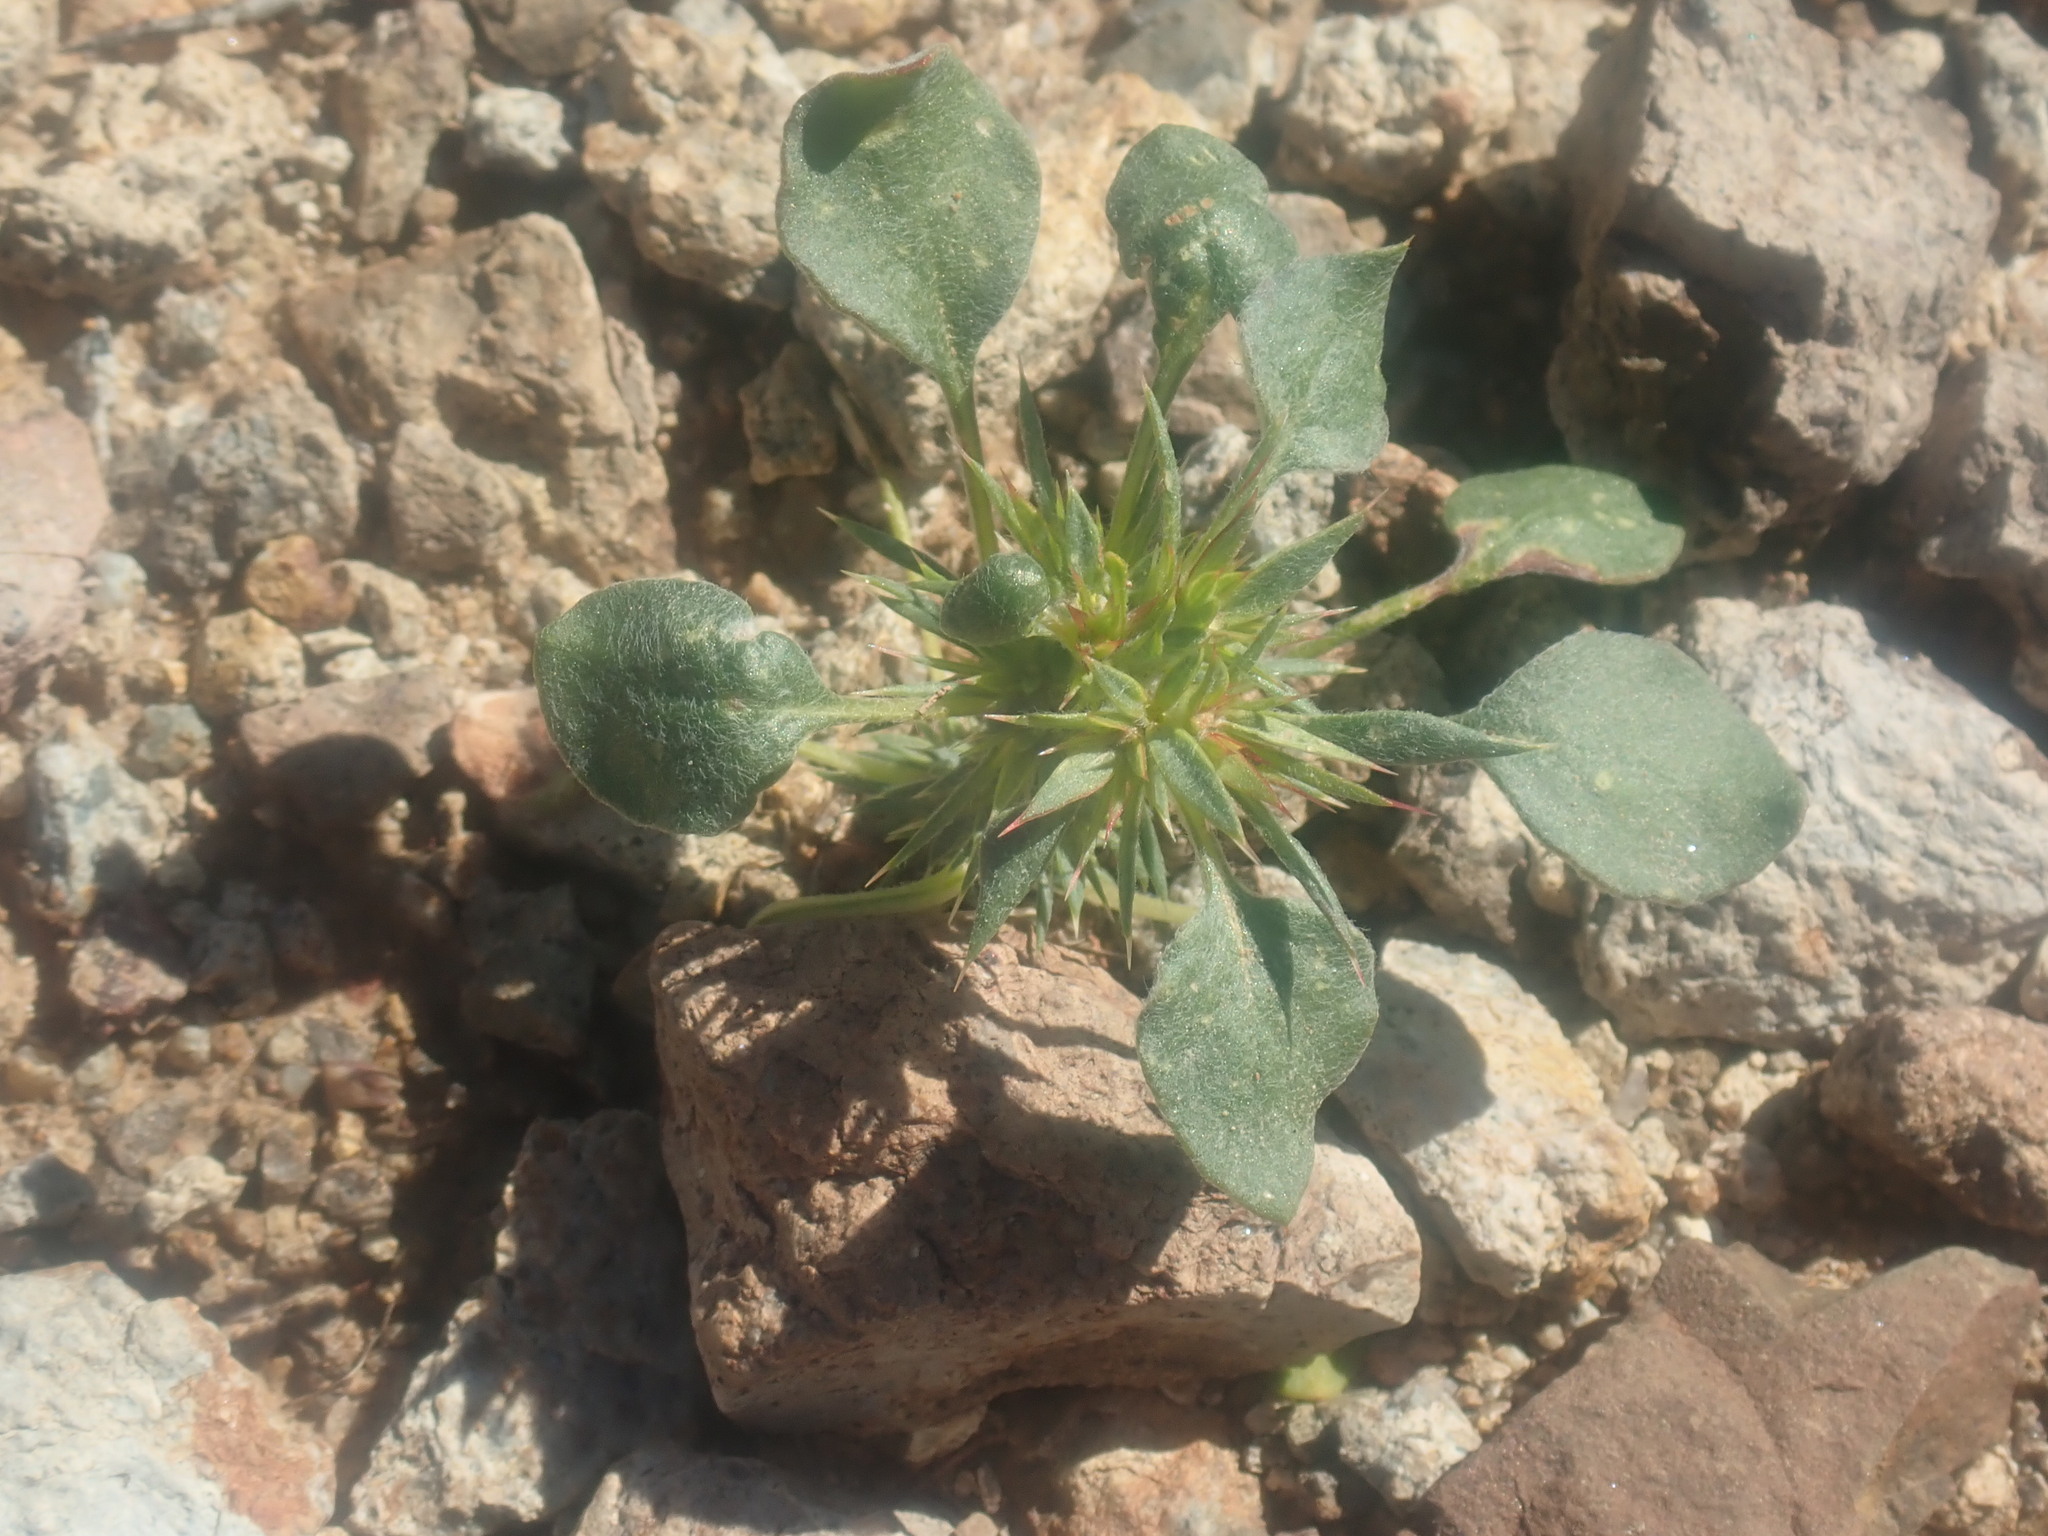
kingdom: Plantae
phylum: Tracheophyta
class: Magnoliopsida
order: Caryophyllales
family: Polygonaceae
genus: Chorizanthe
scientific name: Chorizanthe rigida
